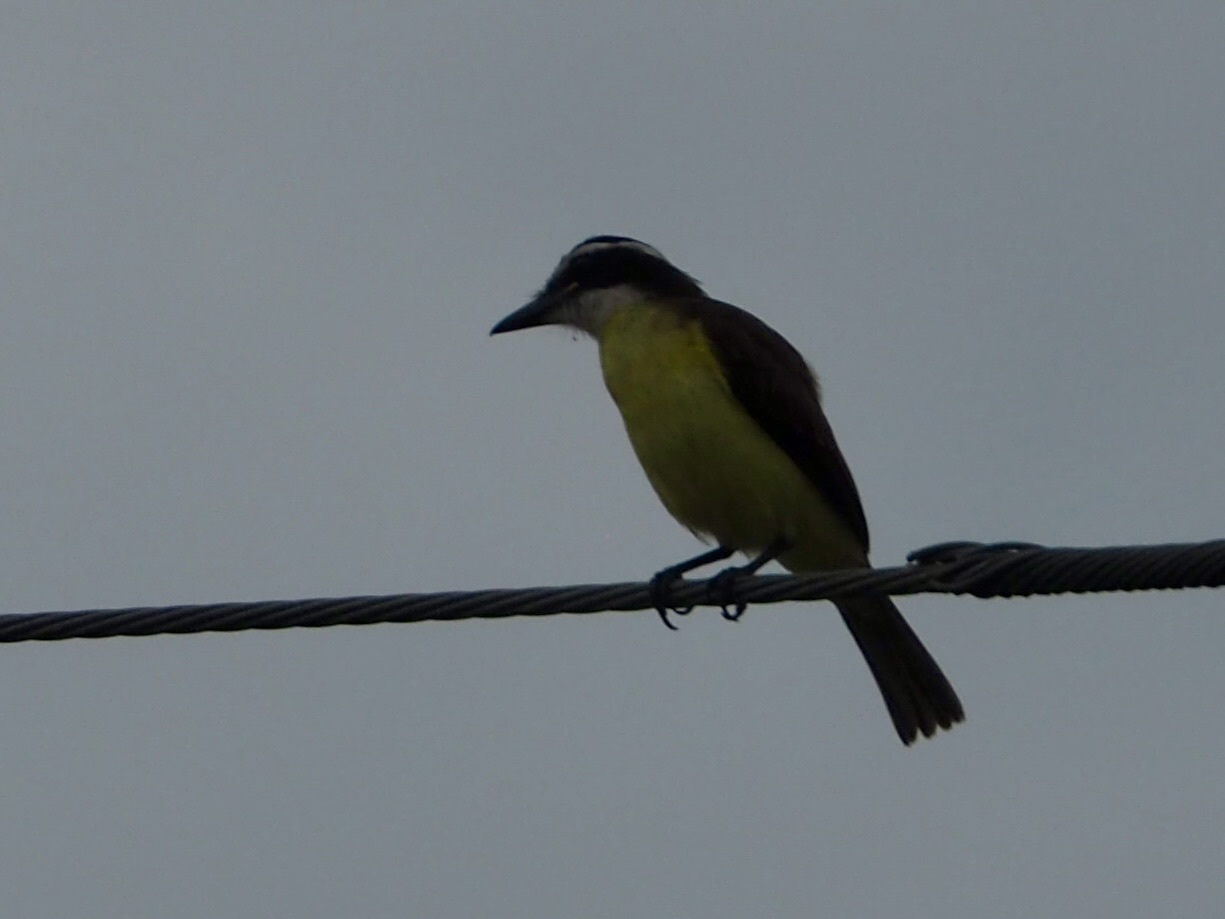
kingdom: Animalia
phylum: Chordata
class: Aves
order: Passeriformes
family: Tyrannidae
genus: Pitangus
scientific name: Pitangus sulphuratus
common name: Great kiskadee
